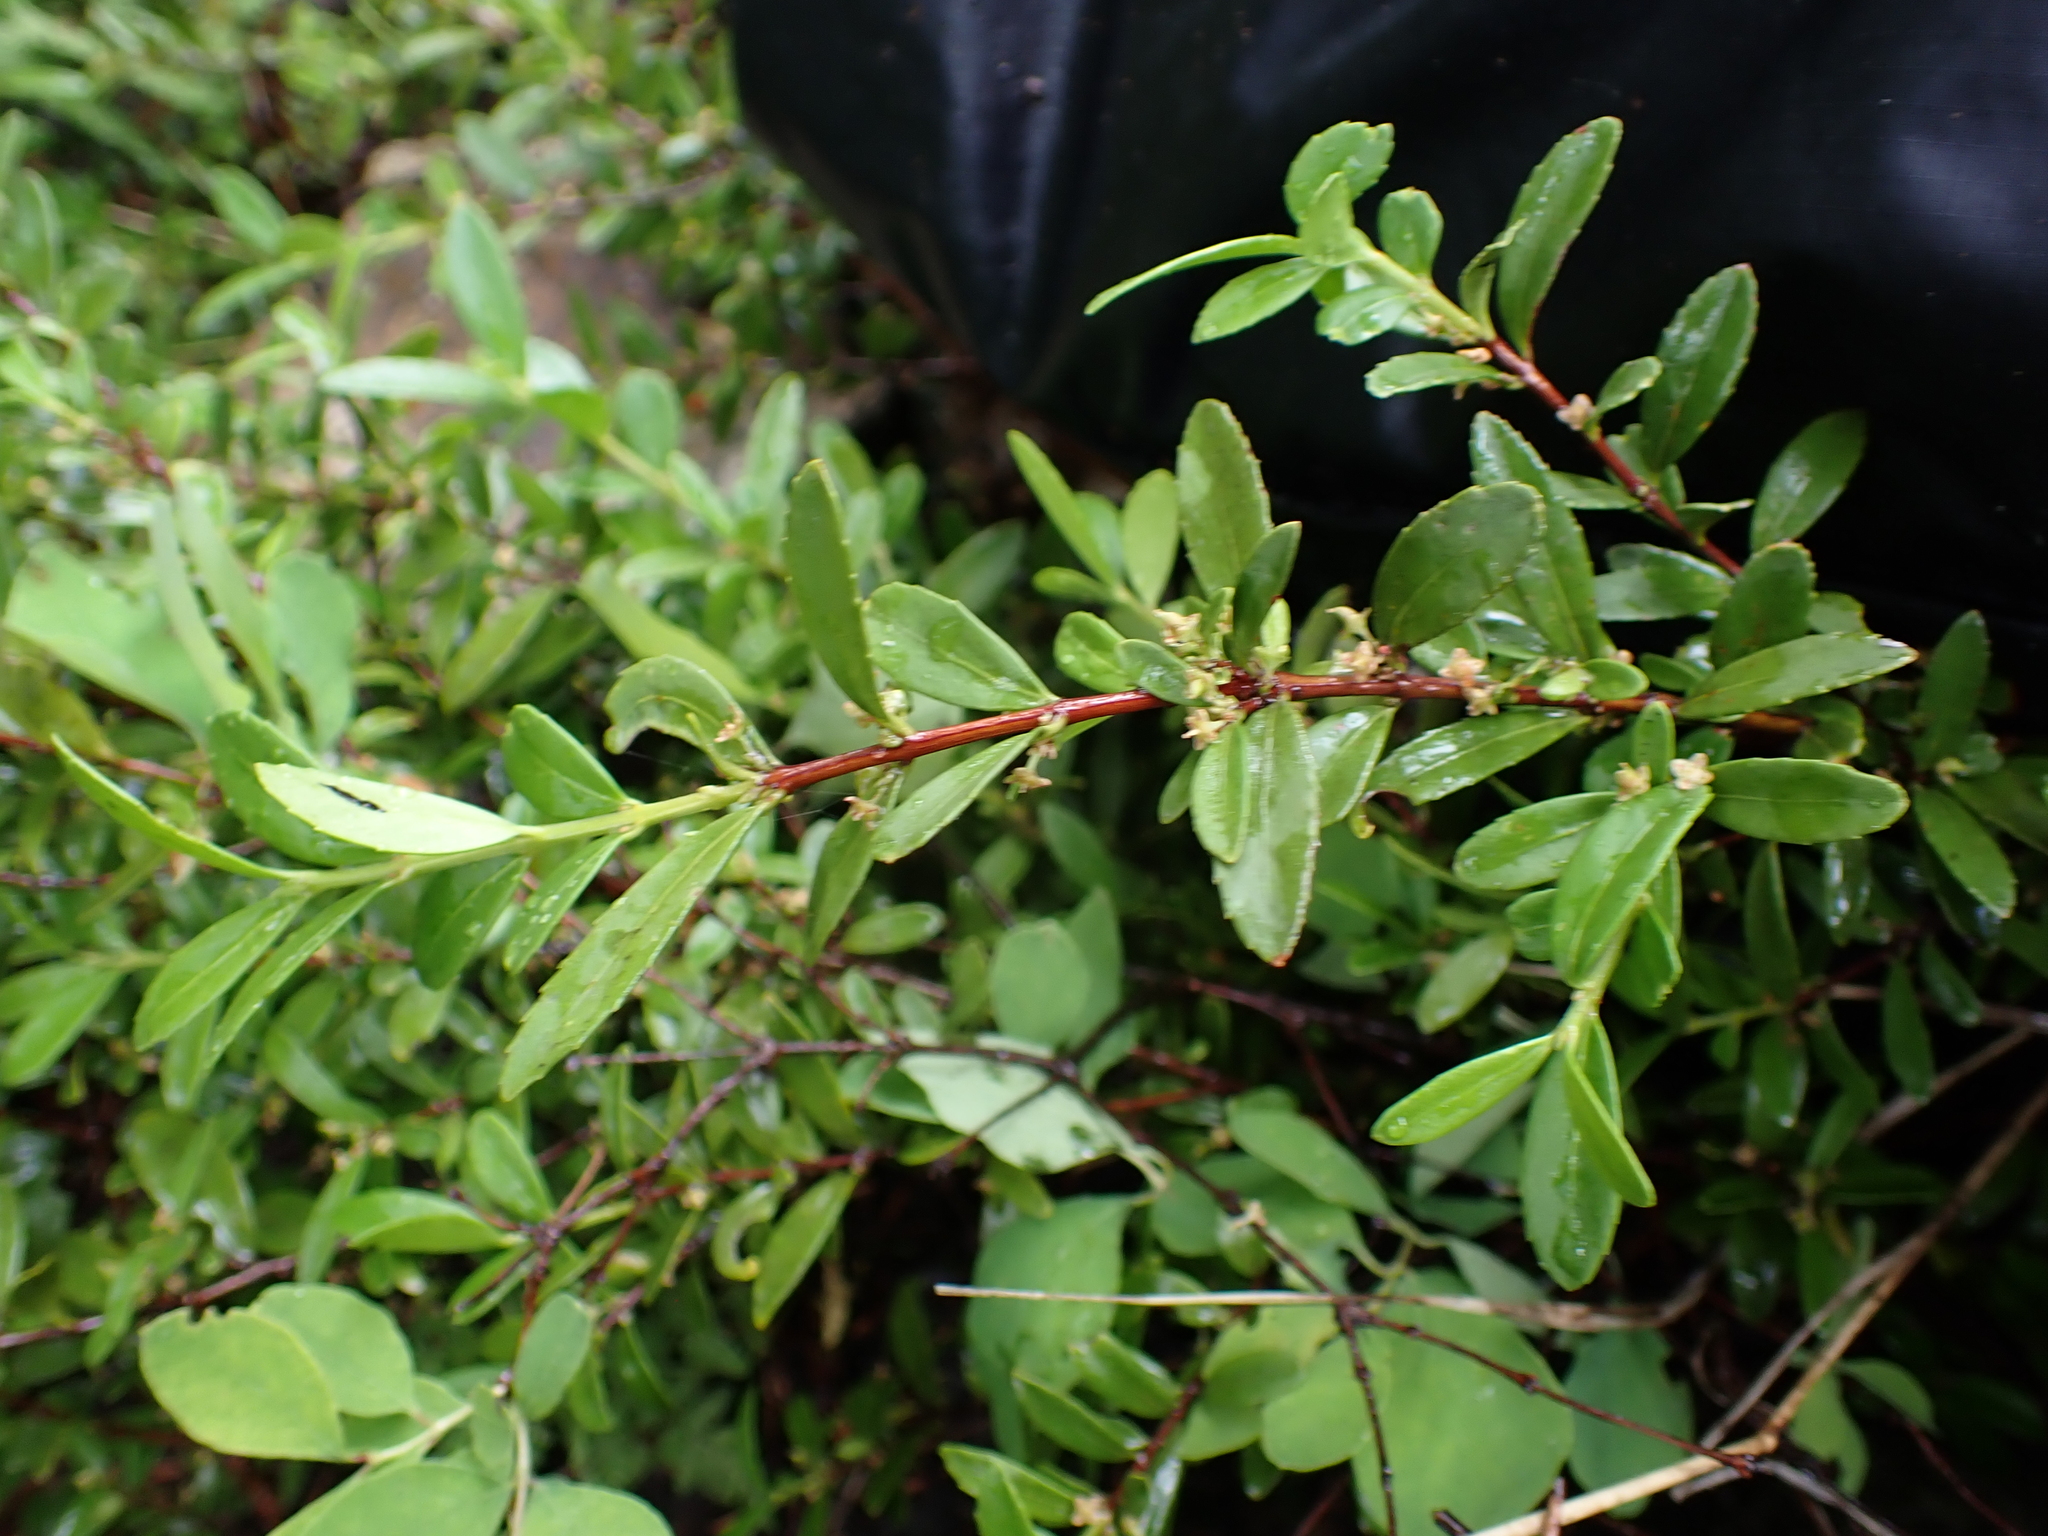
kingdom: Plantae
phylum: Tracheophyta
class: Magnoliopsida
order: Celastrales
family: Celastraceae
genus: Paxistima
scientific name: Paxistima myrsinites
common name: Mountain-lover
